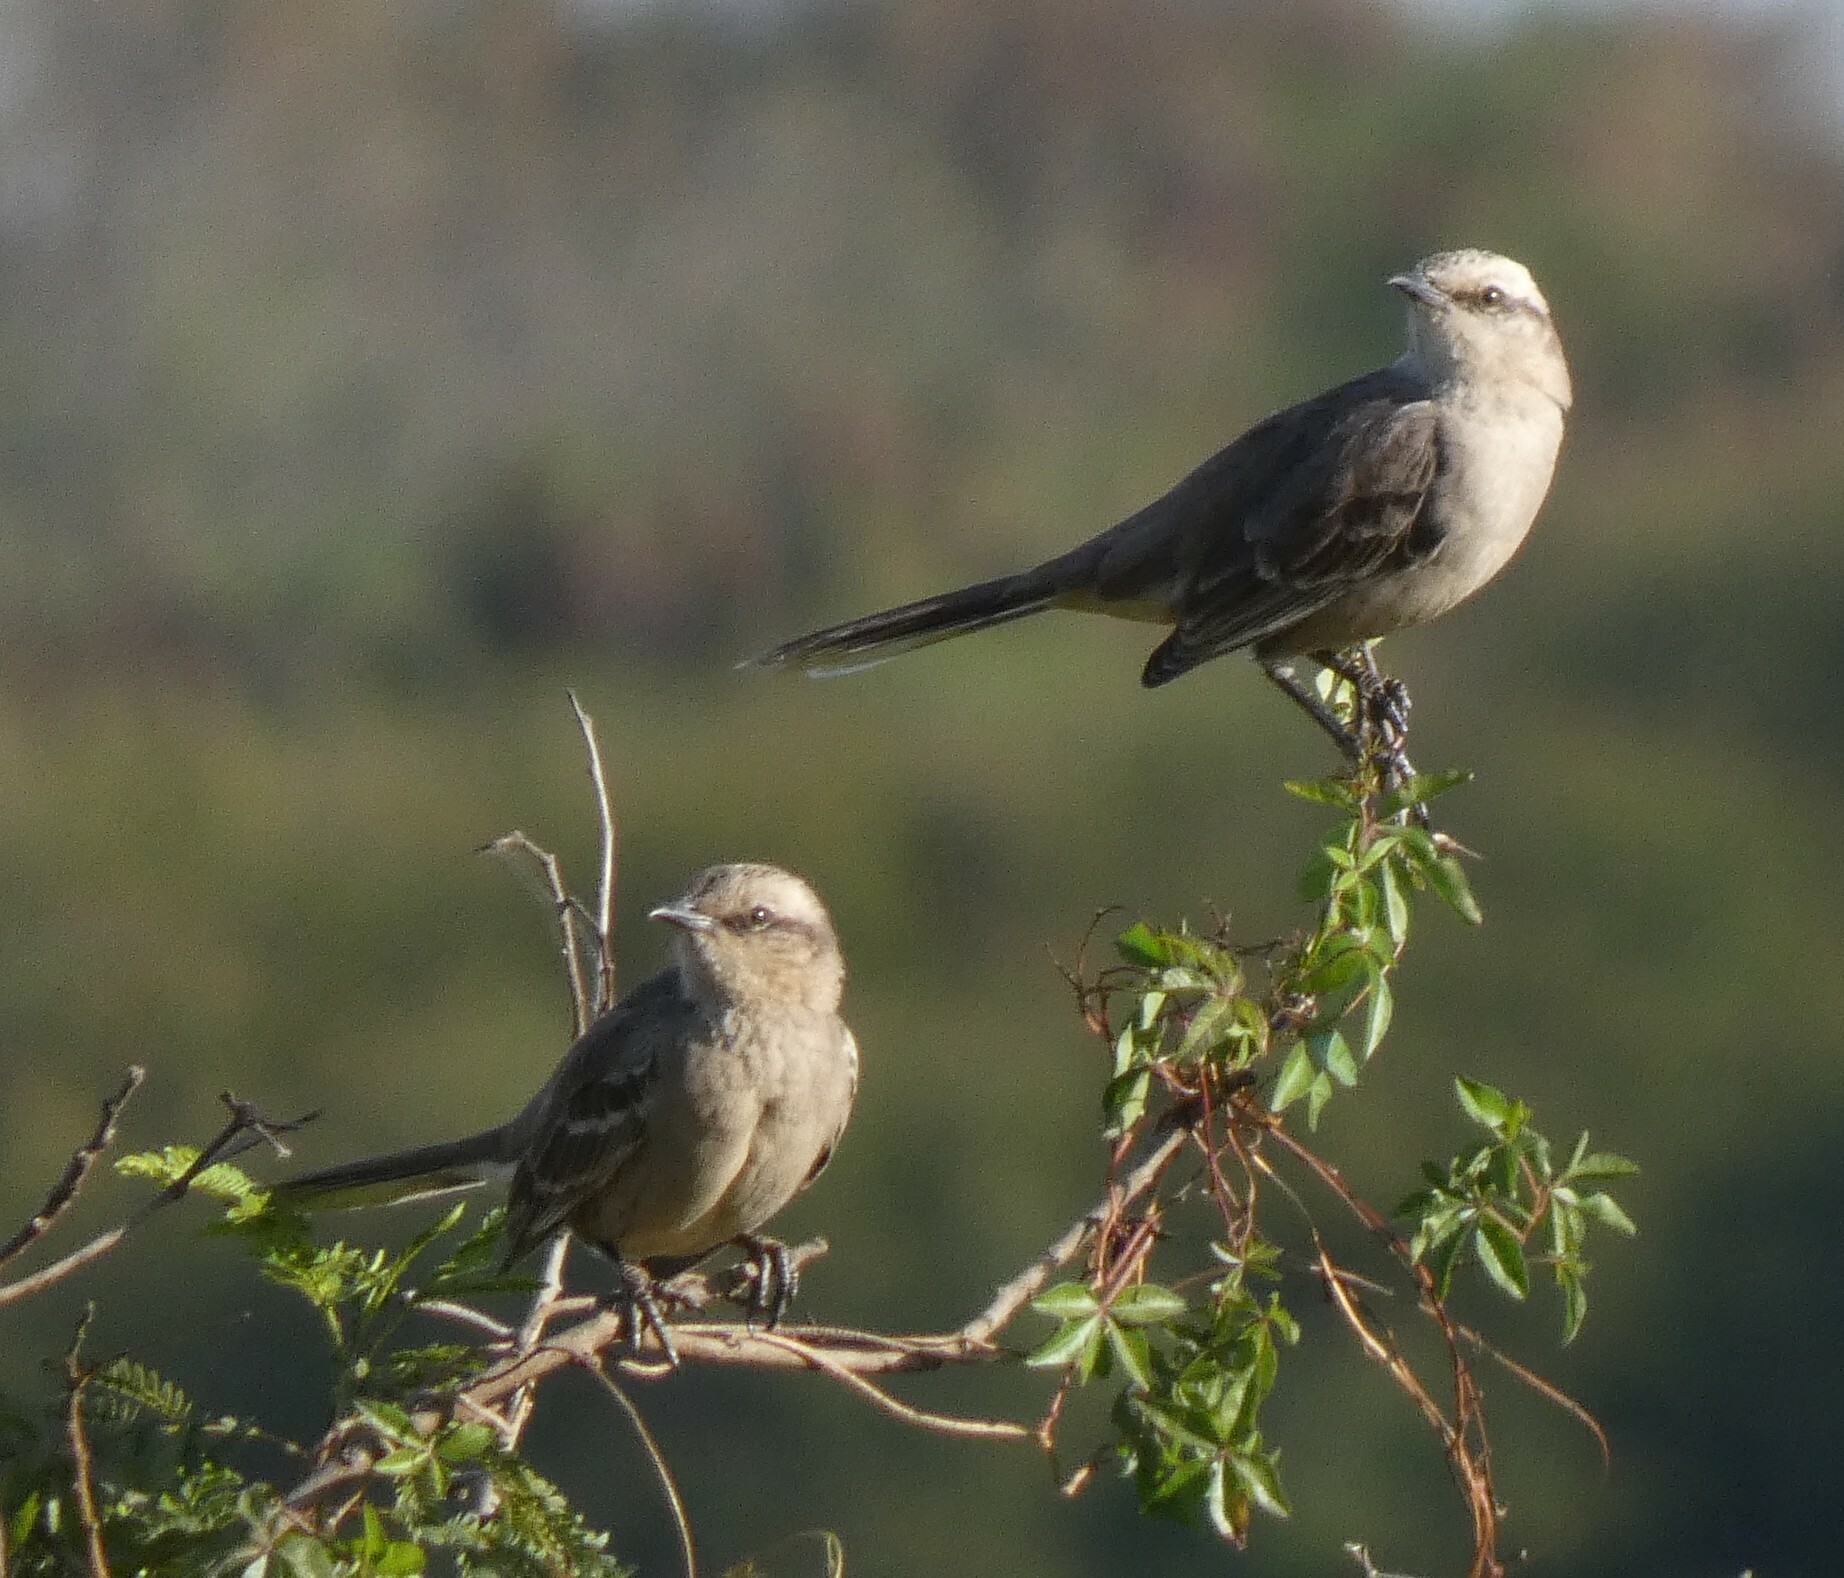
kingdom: Animalia
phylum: Chordata
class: Aves
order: Passeriformes
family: Mimidae
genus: Mimus
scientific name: Mimus saturninus
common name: Chalk-browed mockingbird
